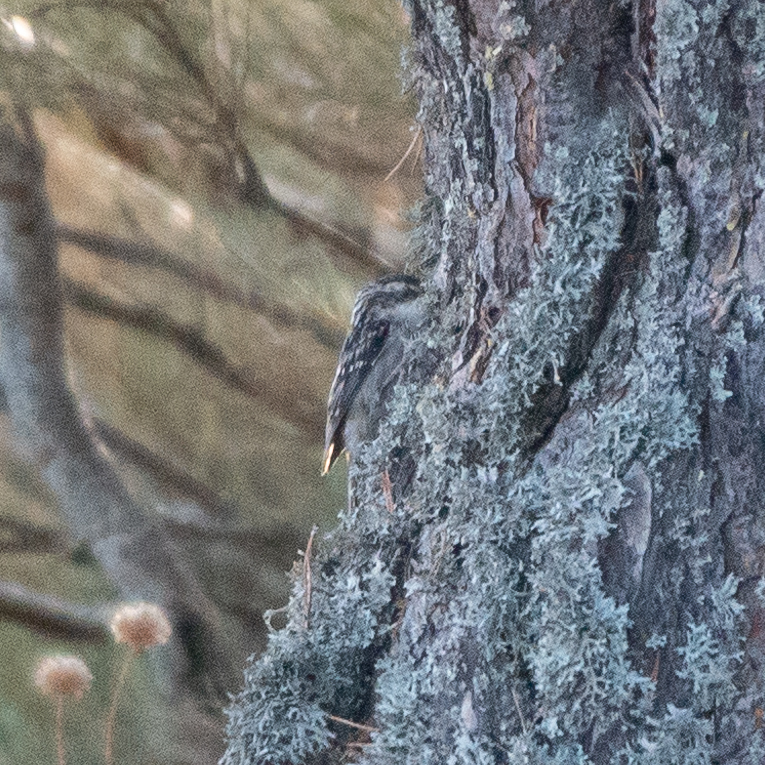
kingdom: Animalia
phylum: Chordata
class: Aves
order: Passeriformes
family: Certhiidae
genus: Certhia
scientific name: Certhia brachydactyla
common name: Short-toed treecreeper
